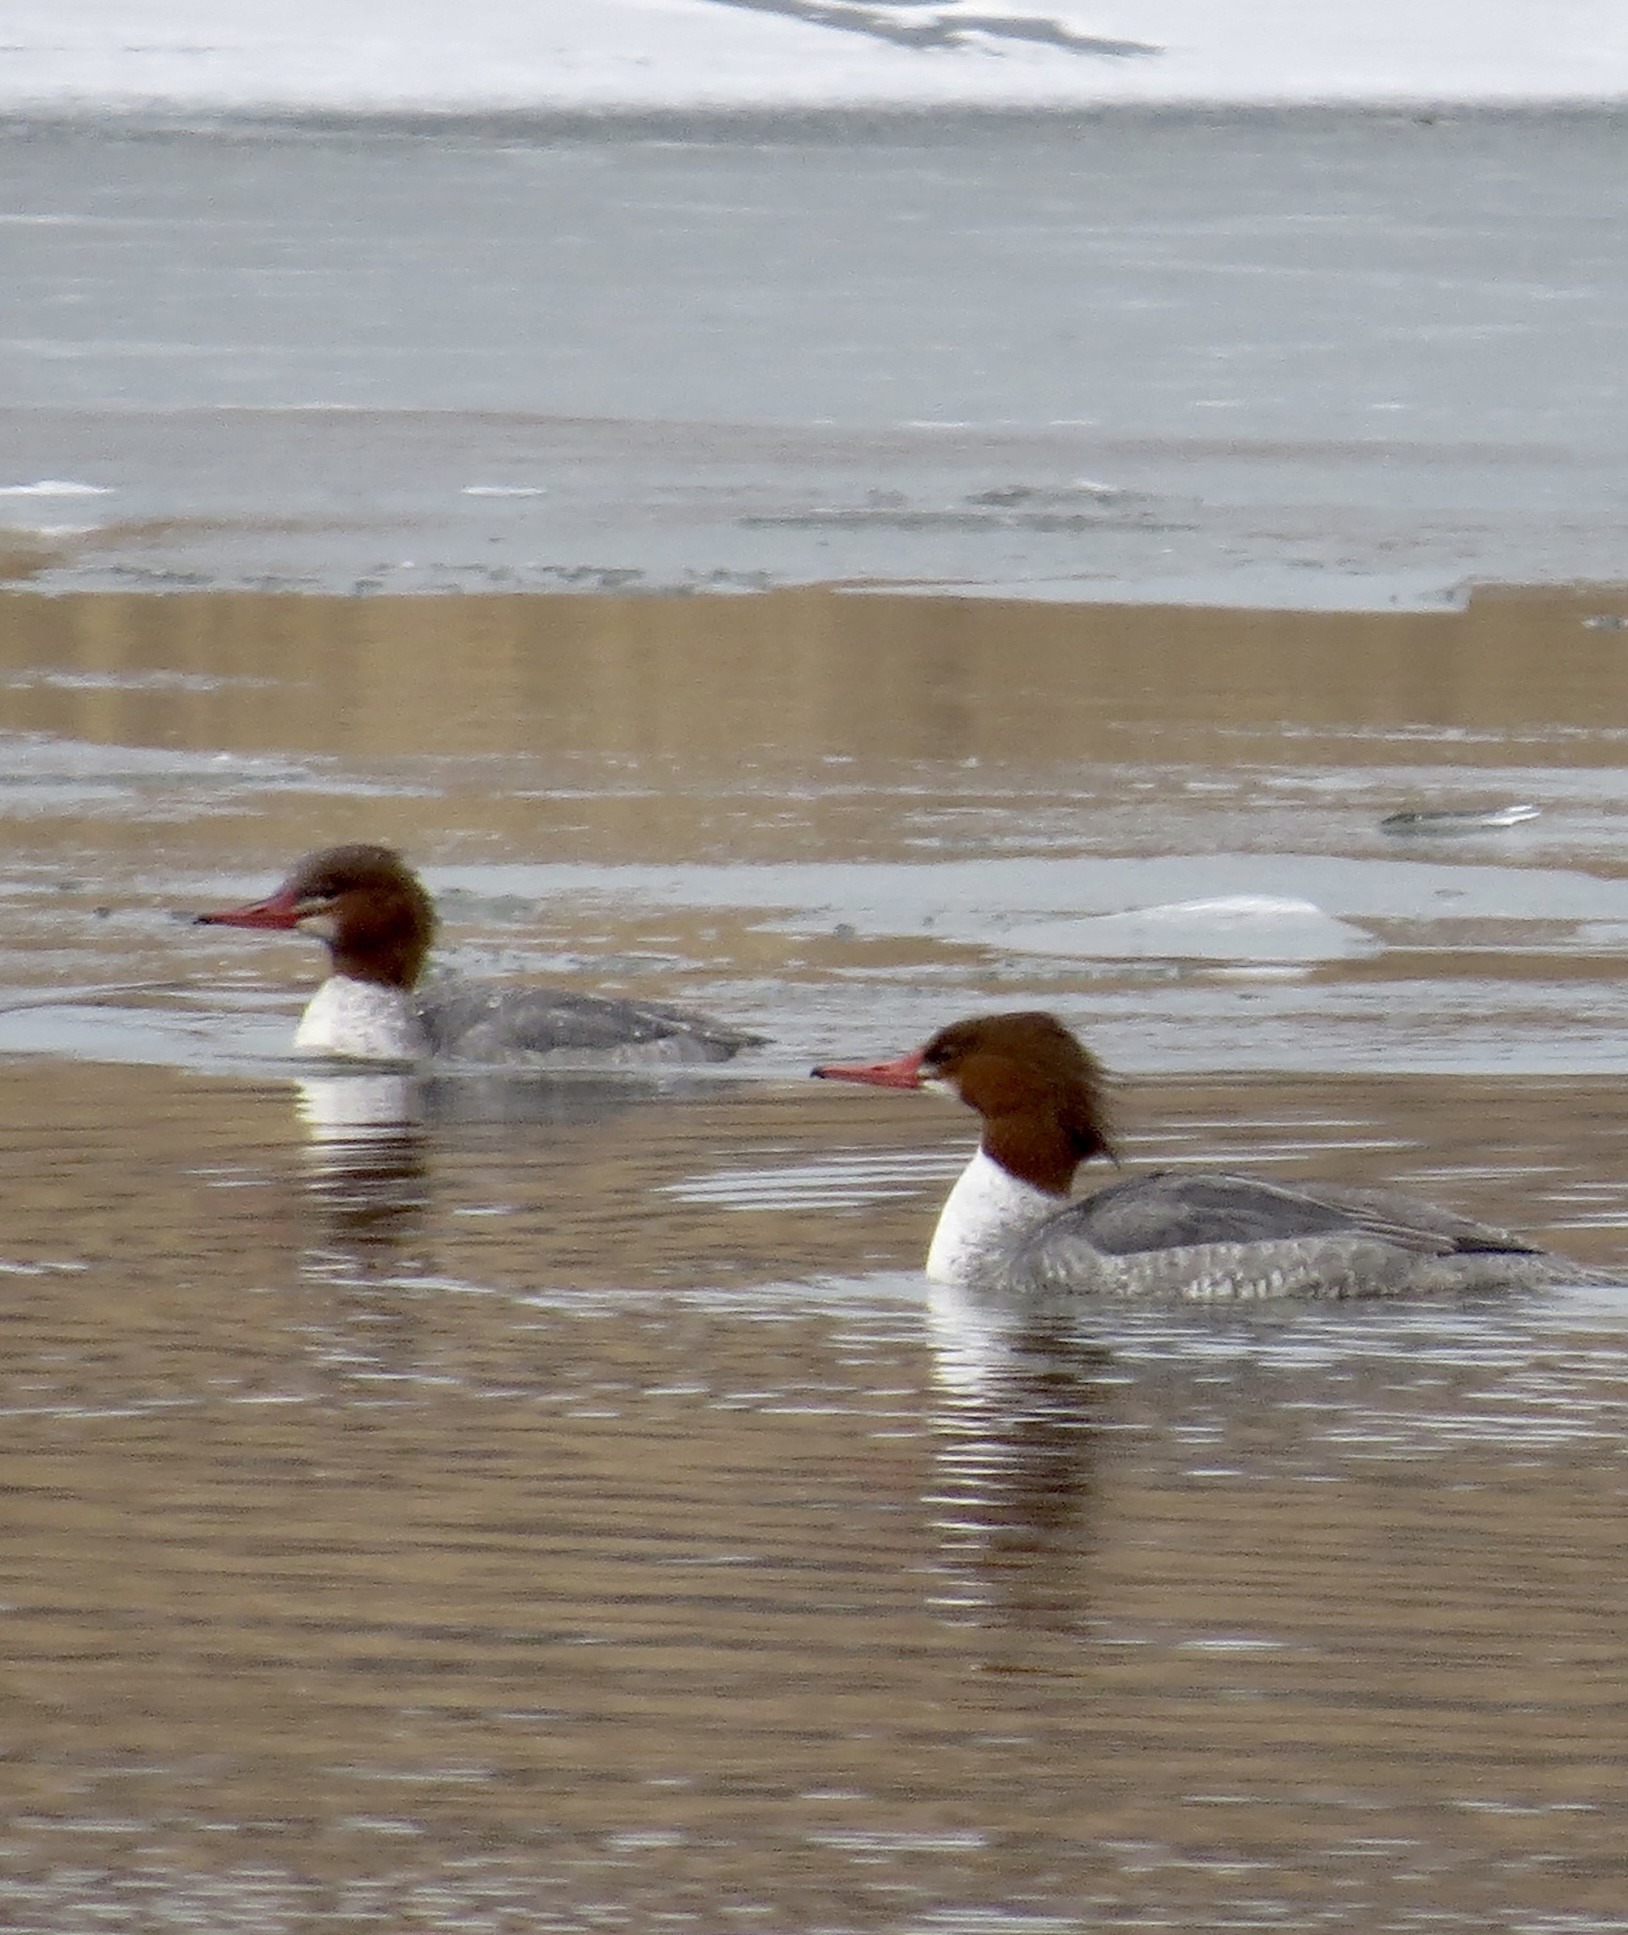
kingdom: Animalia
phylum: Chordata
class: Aves
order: Anseriformes
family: Anatidae
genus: Mergus
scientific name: Mergus merganser
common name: Common merganser
